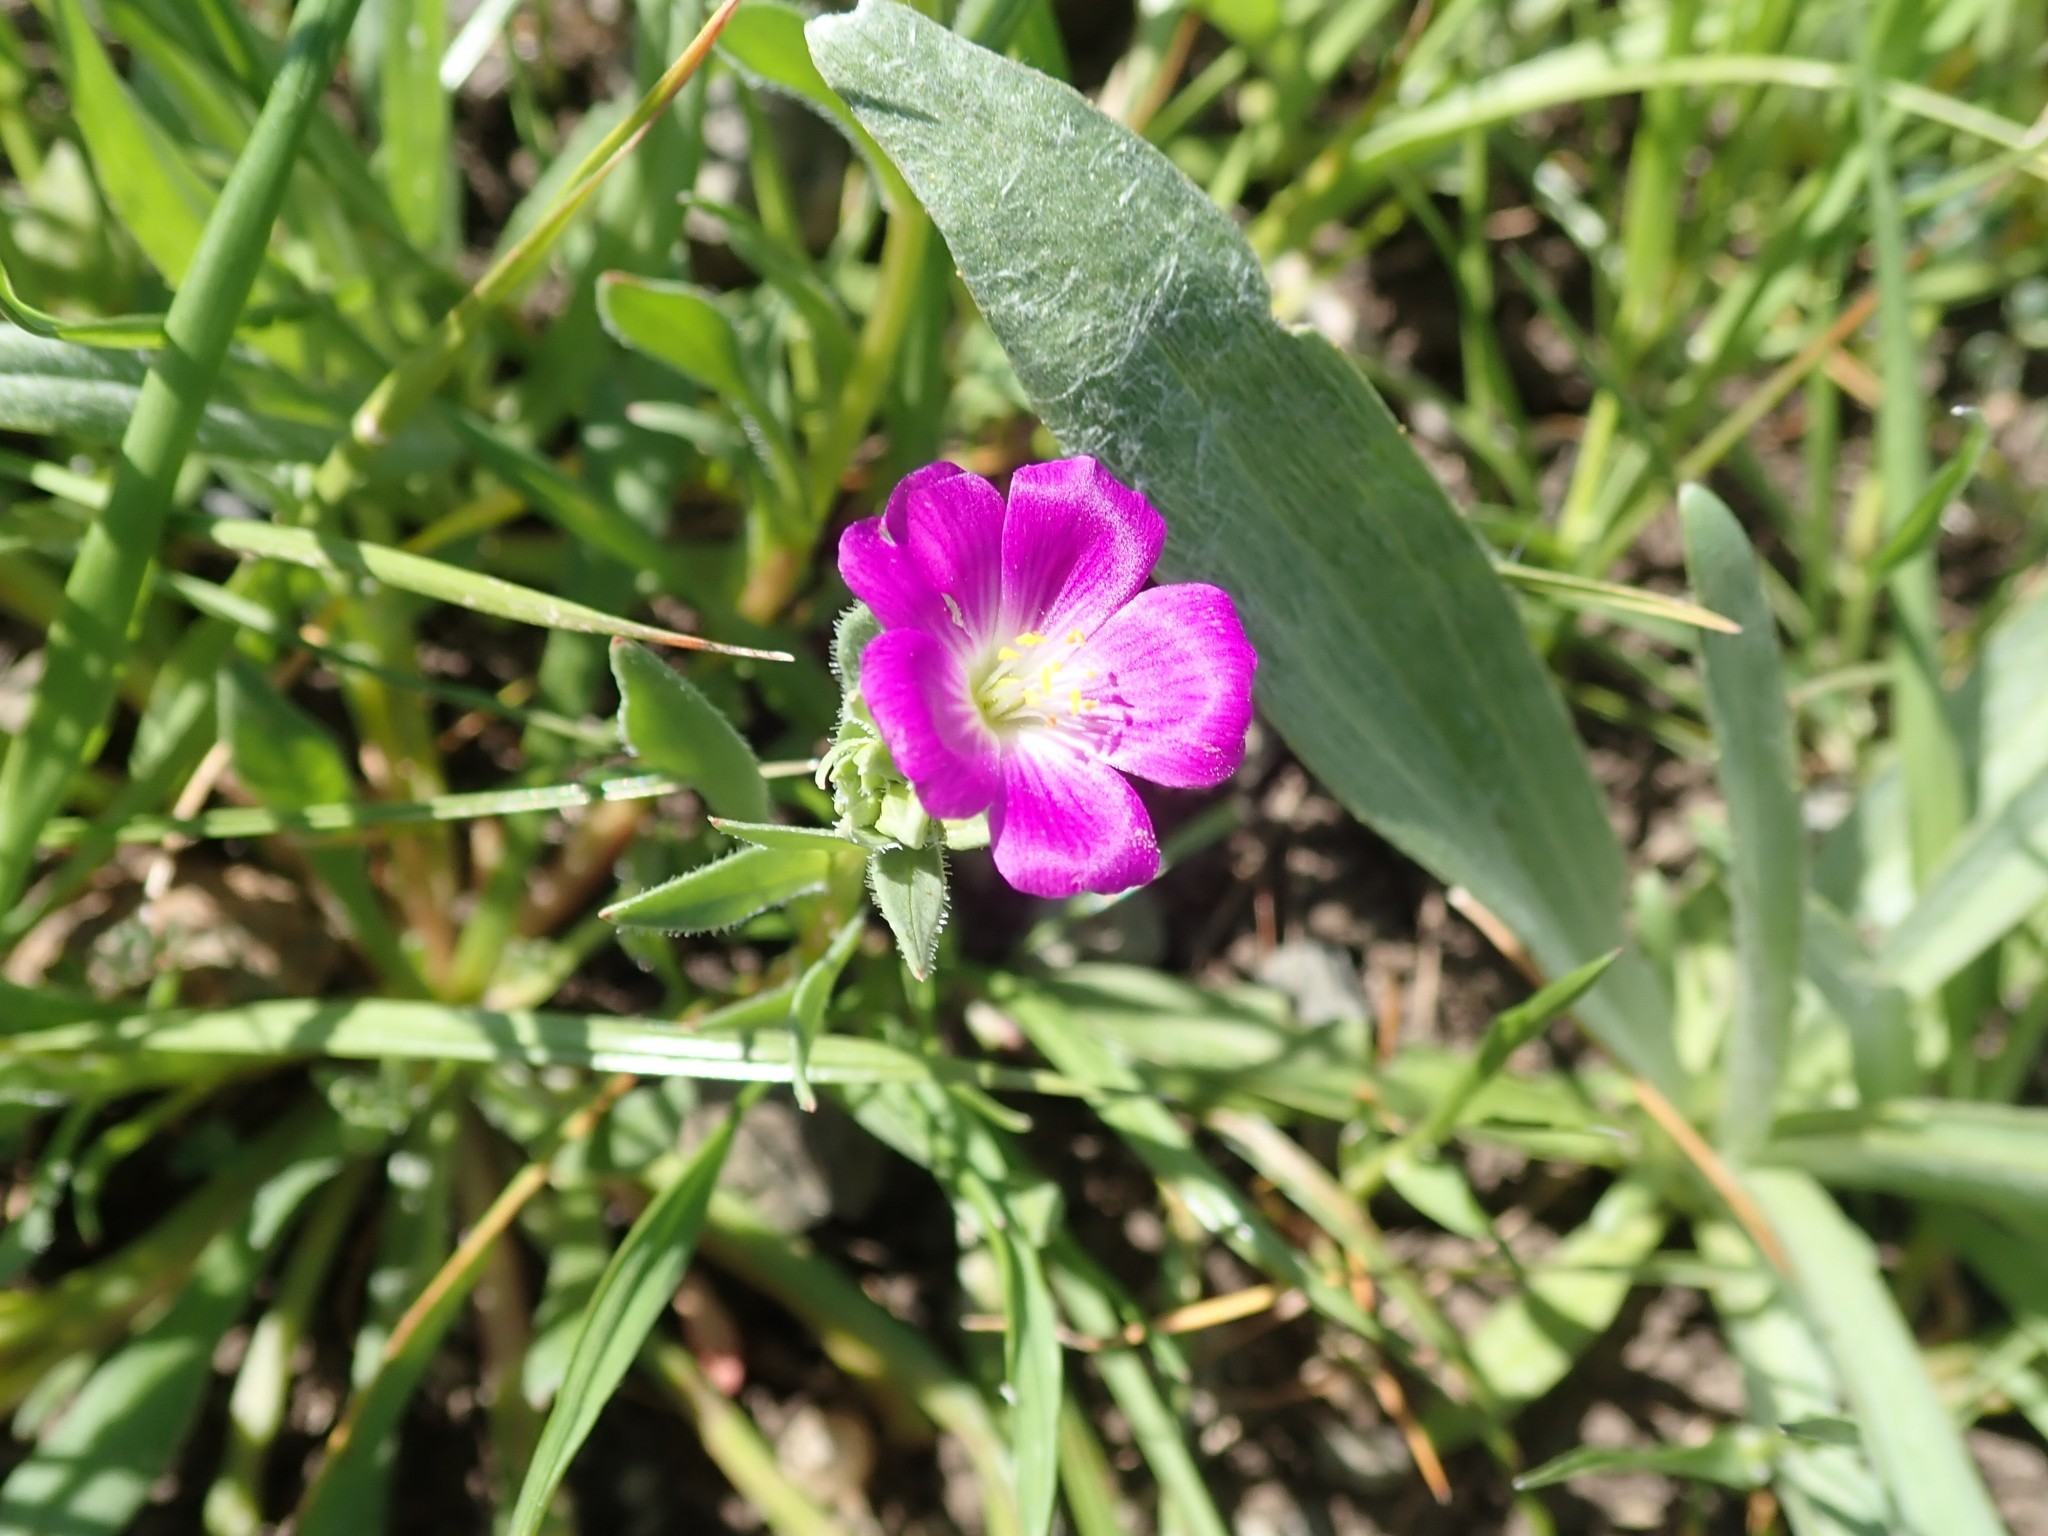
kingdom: Plantae
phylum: Tracheophyta
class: Magnoliopsida
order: Caryophyllales
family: Montiaceae
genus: Calandrinia
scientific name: Calandrinia menziesii
